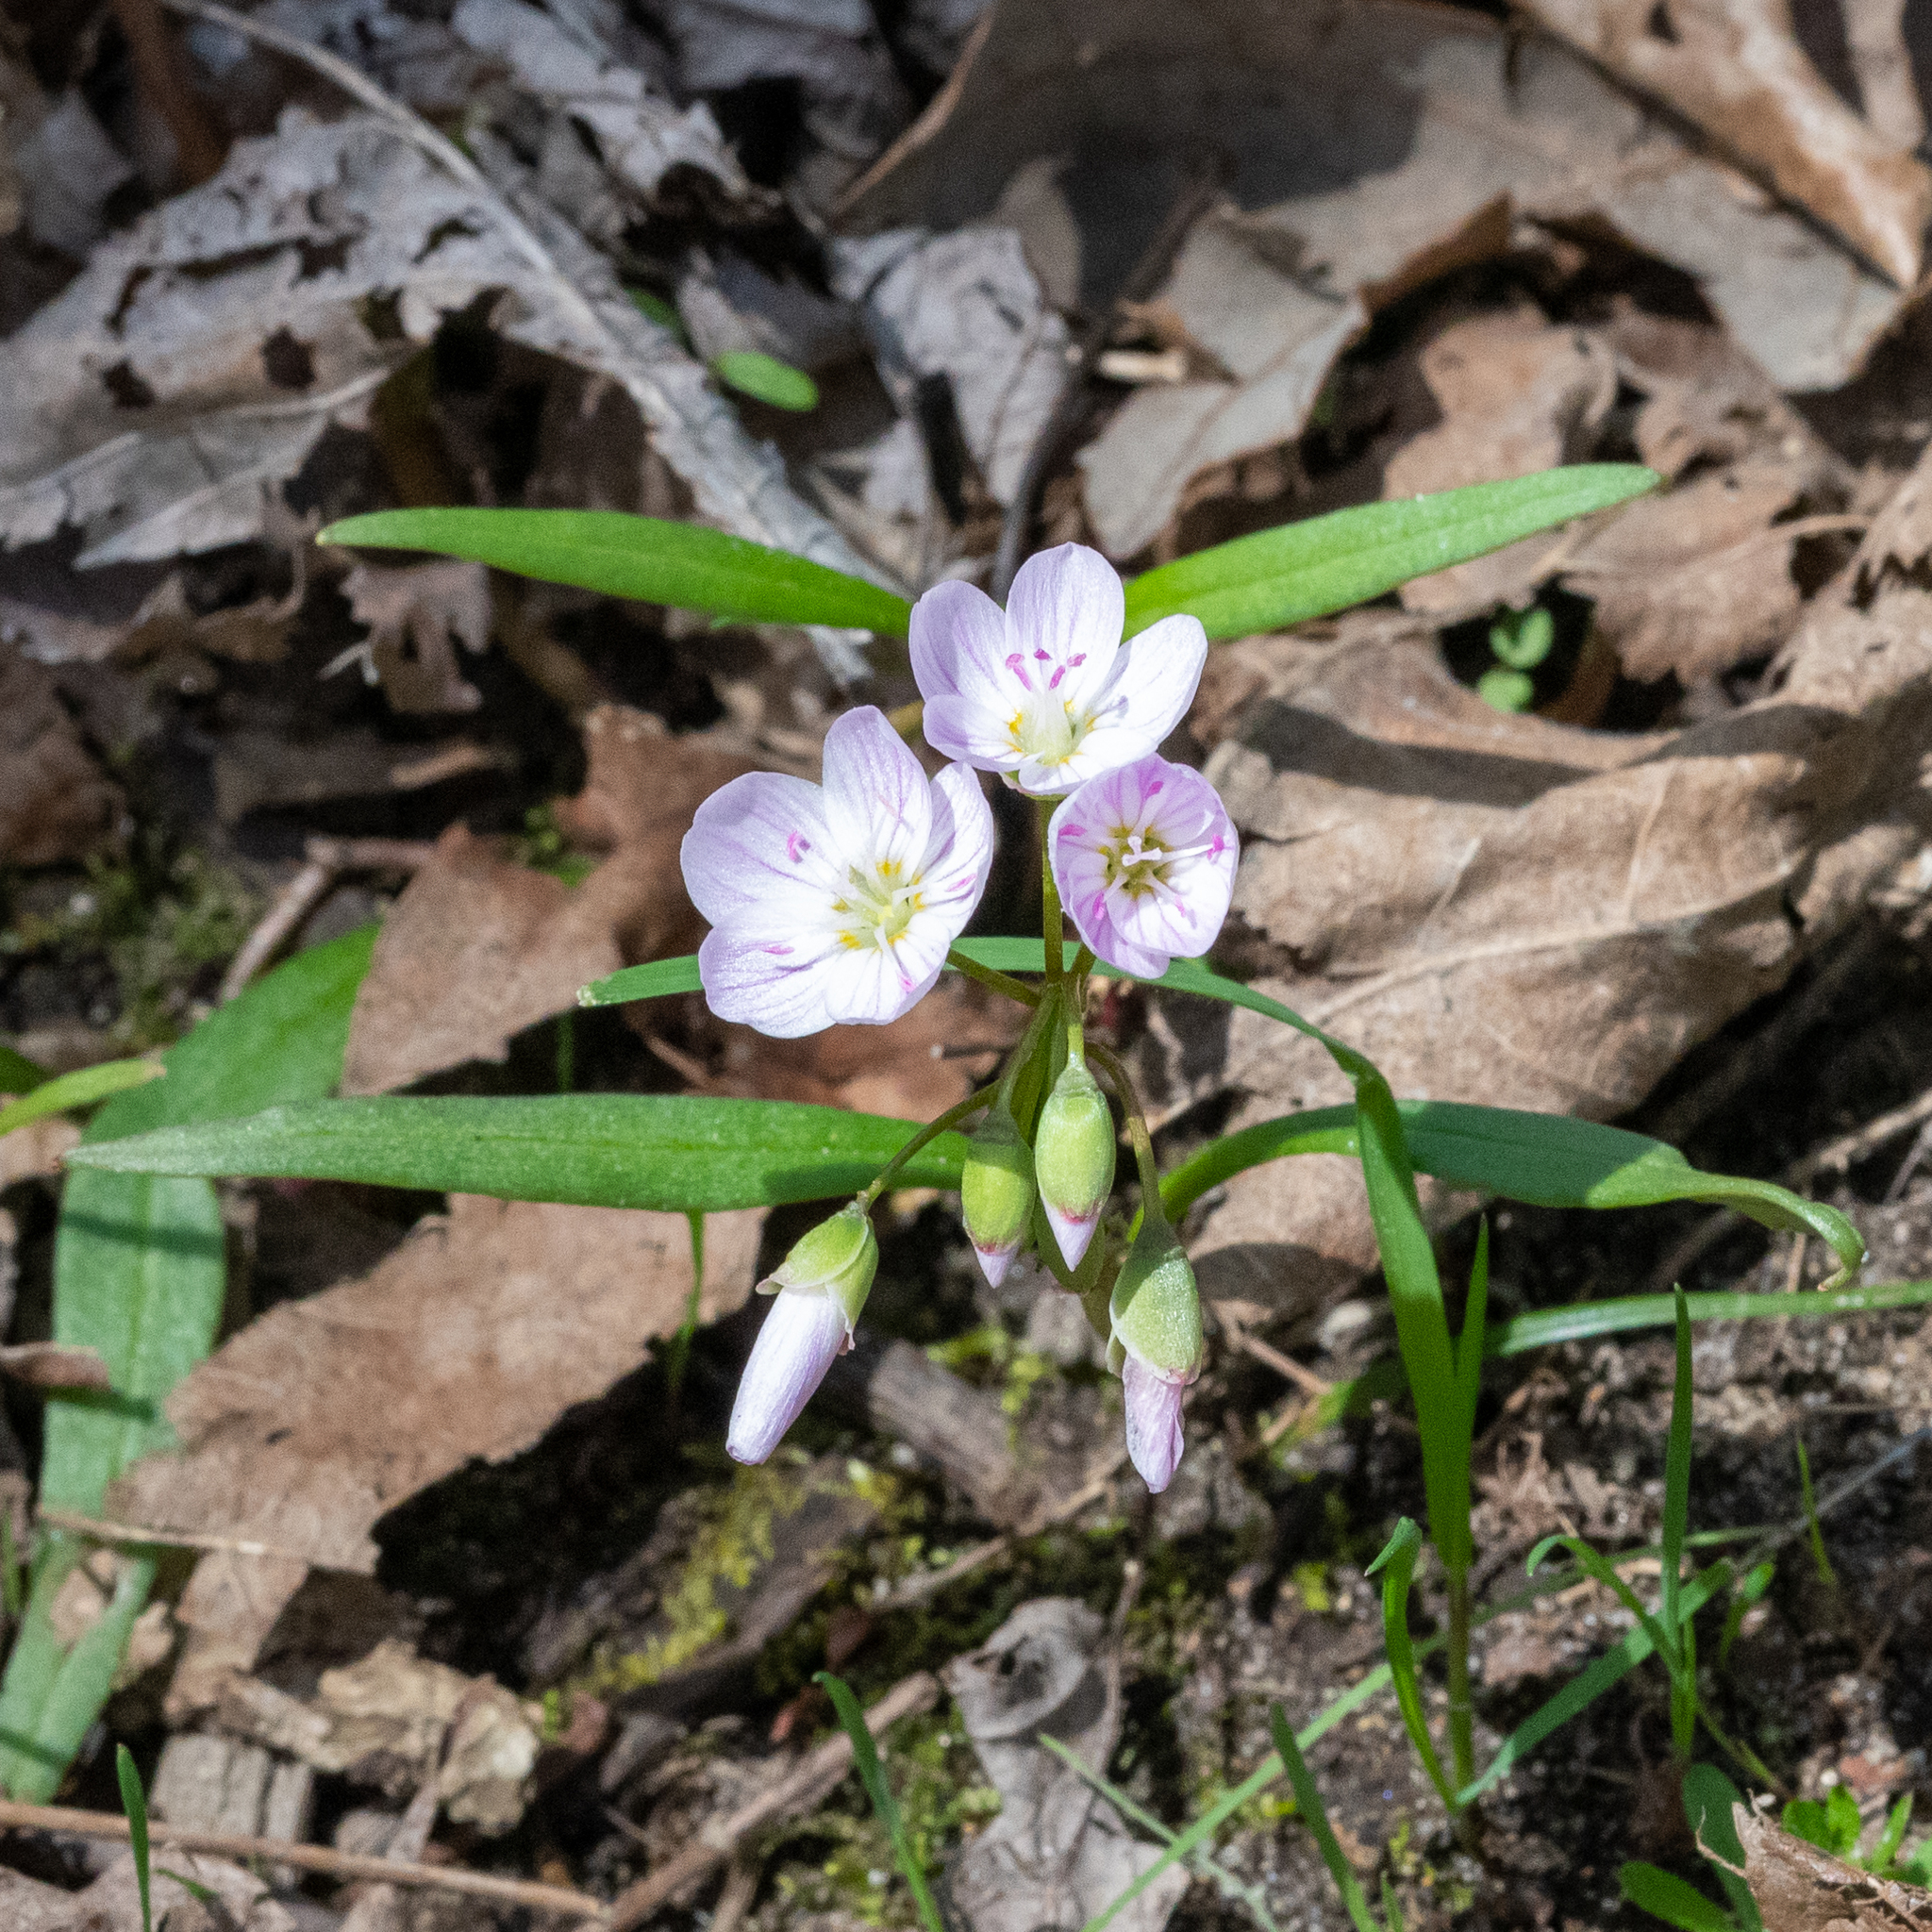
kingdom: Plantae
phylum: Tracheophyta
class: Magnoliopsida
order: Caryophyllales
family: Montiaceae
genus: Claytonia
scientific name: Claytonia virginica
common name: Virginia springbeauty
